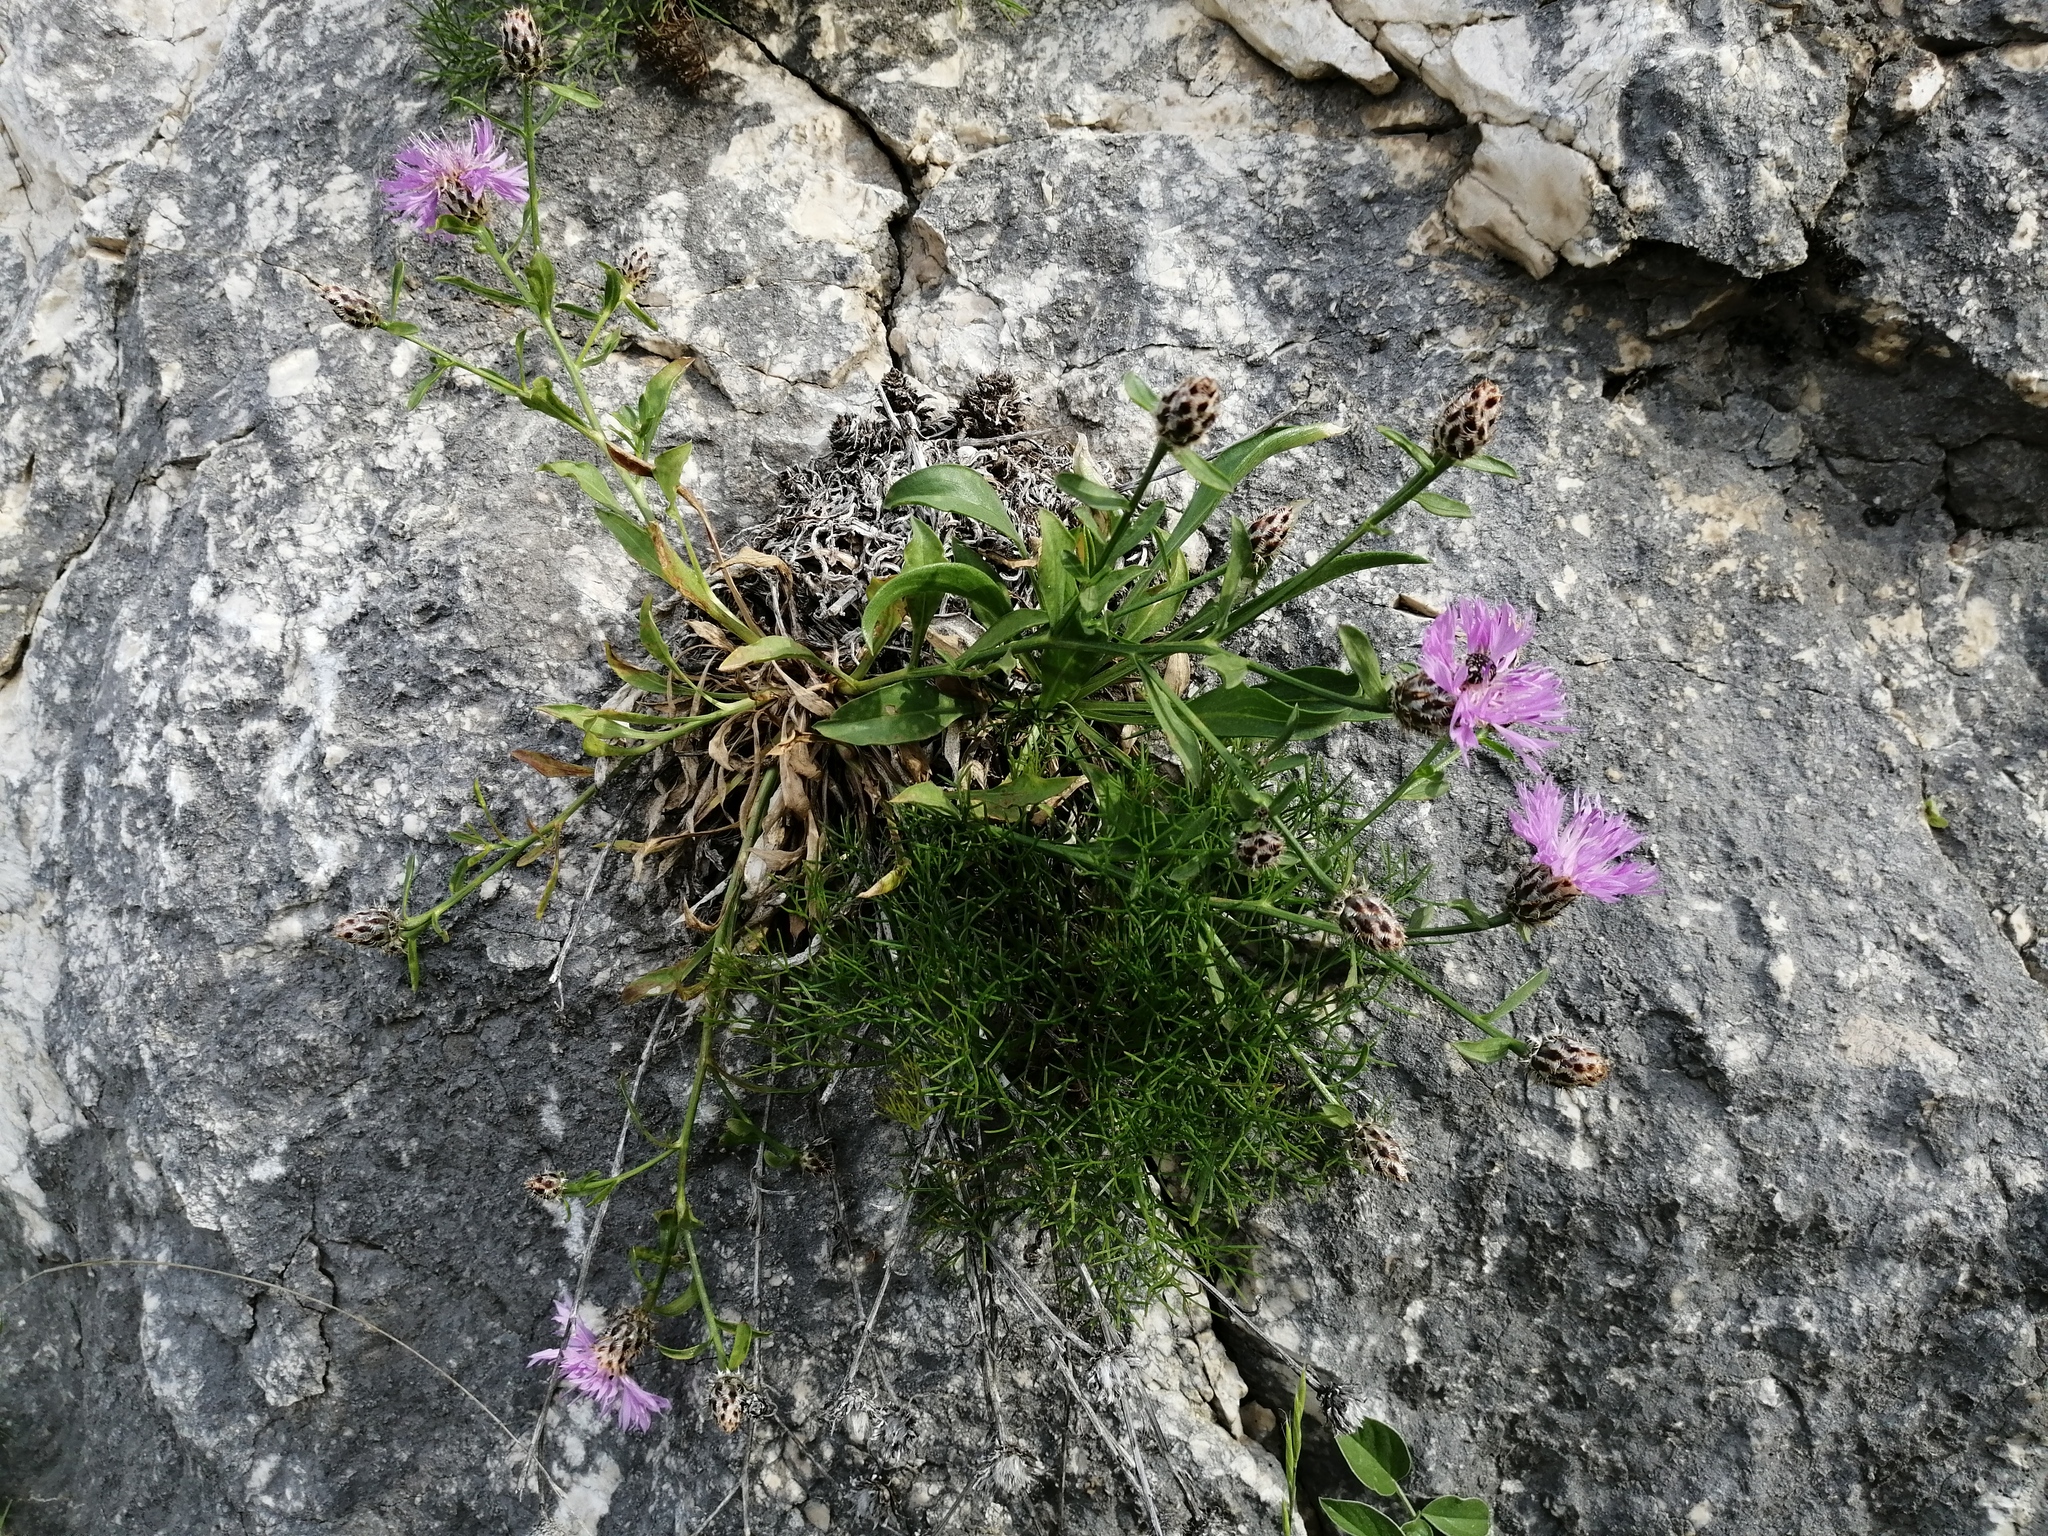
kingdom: Plantae
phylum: Tracheophyta
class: Magnoliopsida
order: Asterales
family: Asteraceae
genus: Centaurea
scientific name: Centaurea cuspidata
